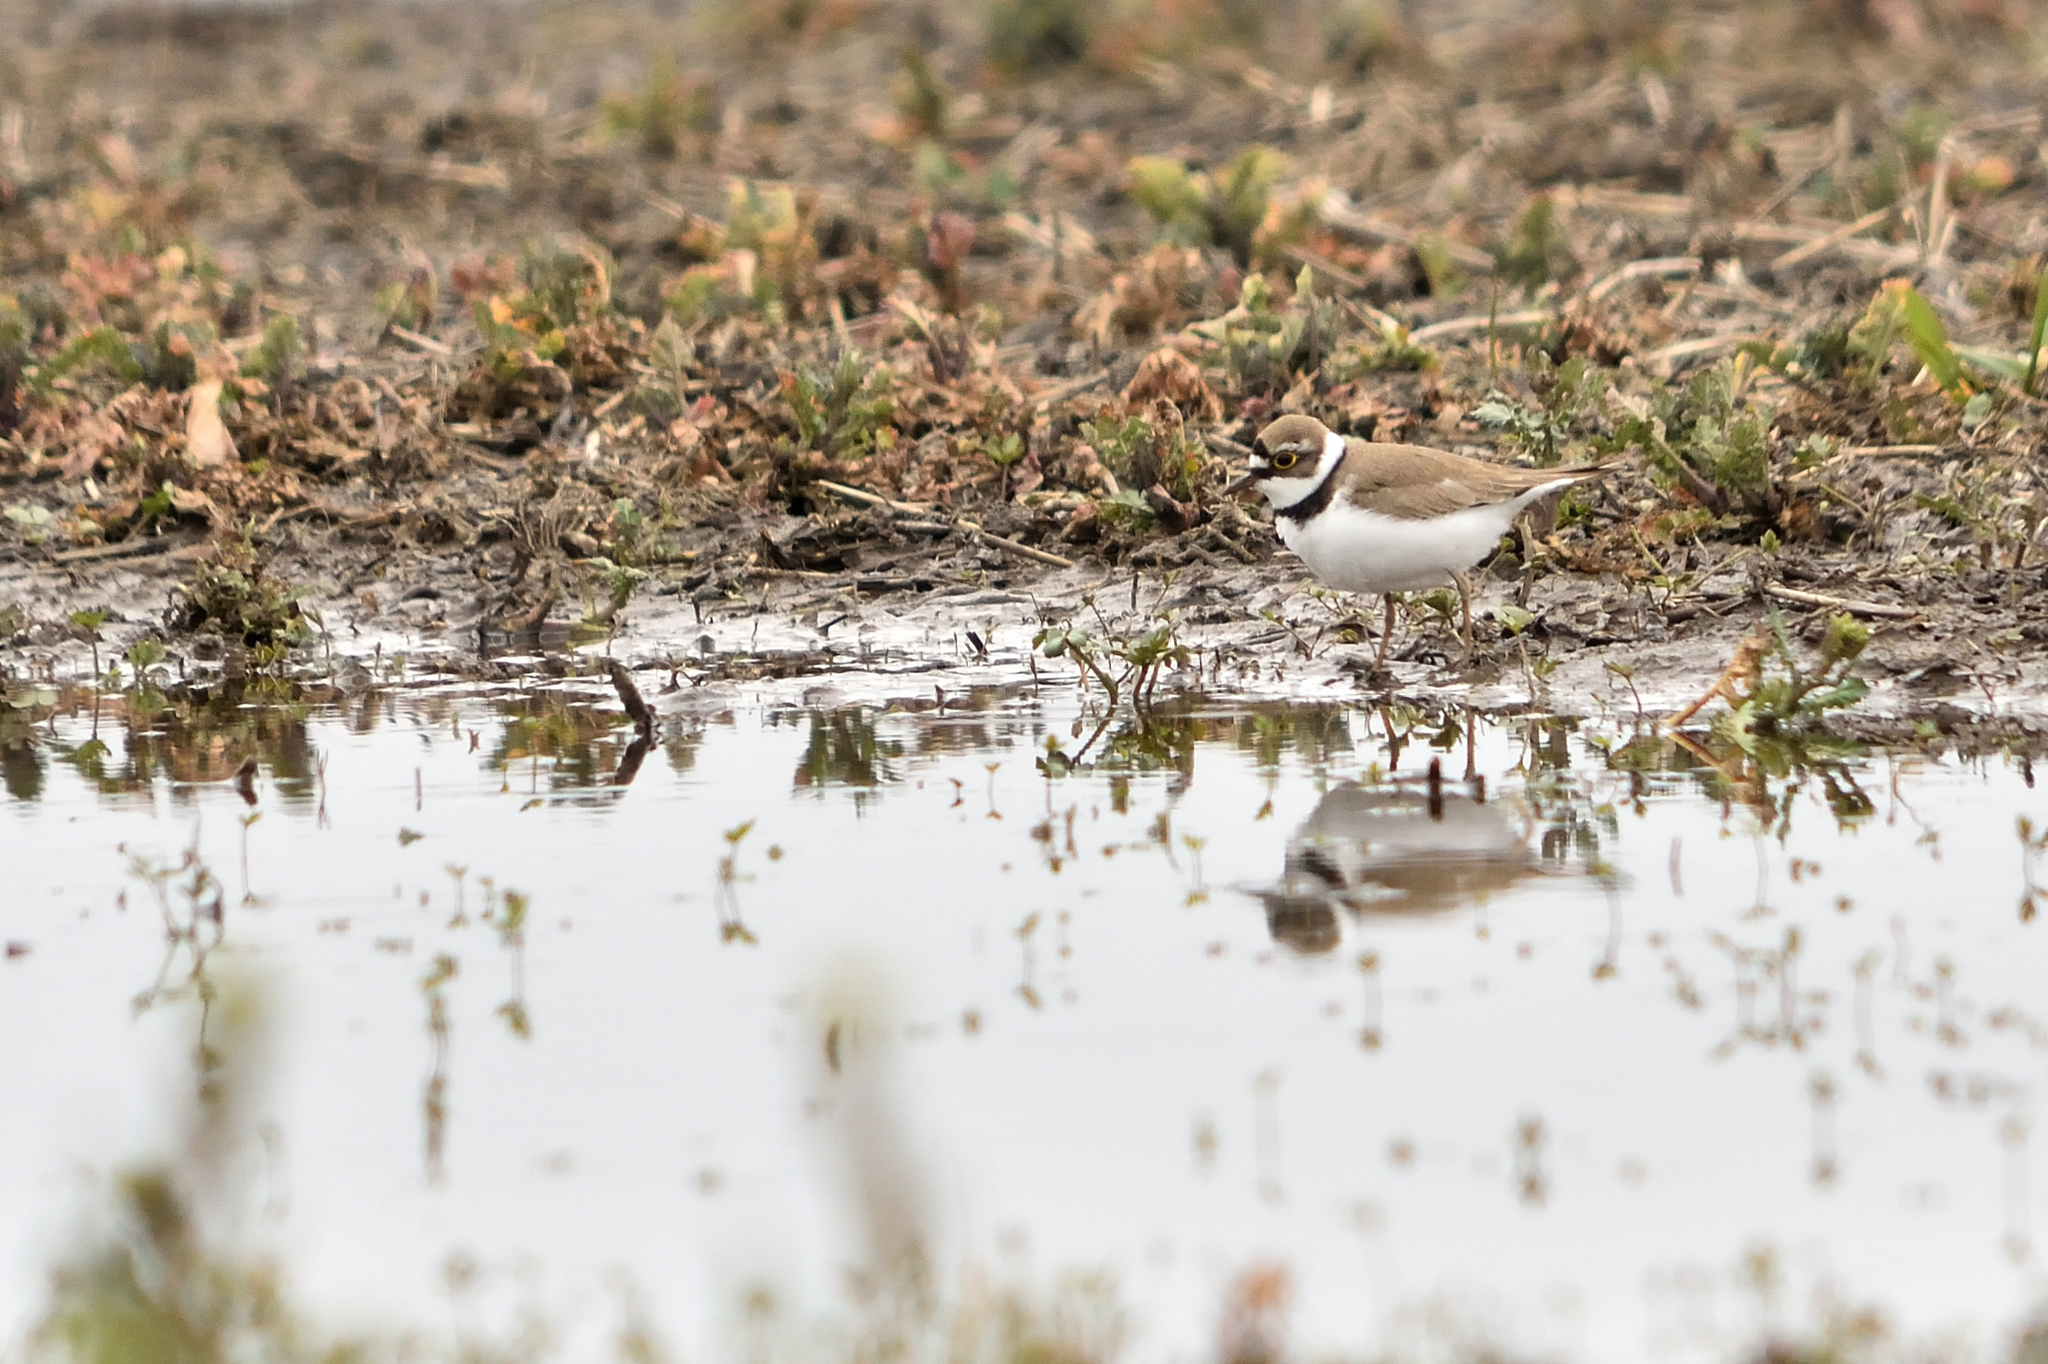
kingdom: Animalia
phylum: Chordata
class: Aves
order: Charadriiformes
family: Charadriidae
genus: Charadrius
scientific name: Charadrius dubius
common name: Little ringed plover
